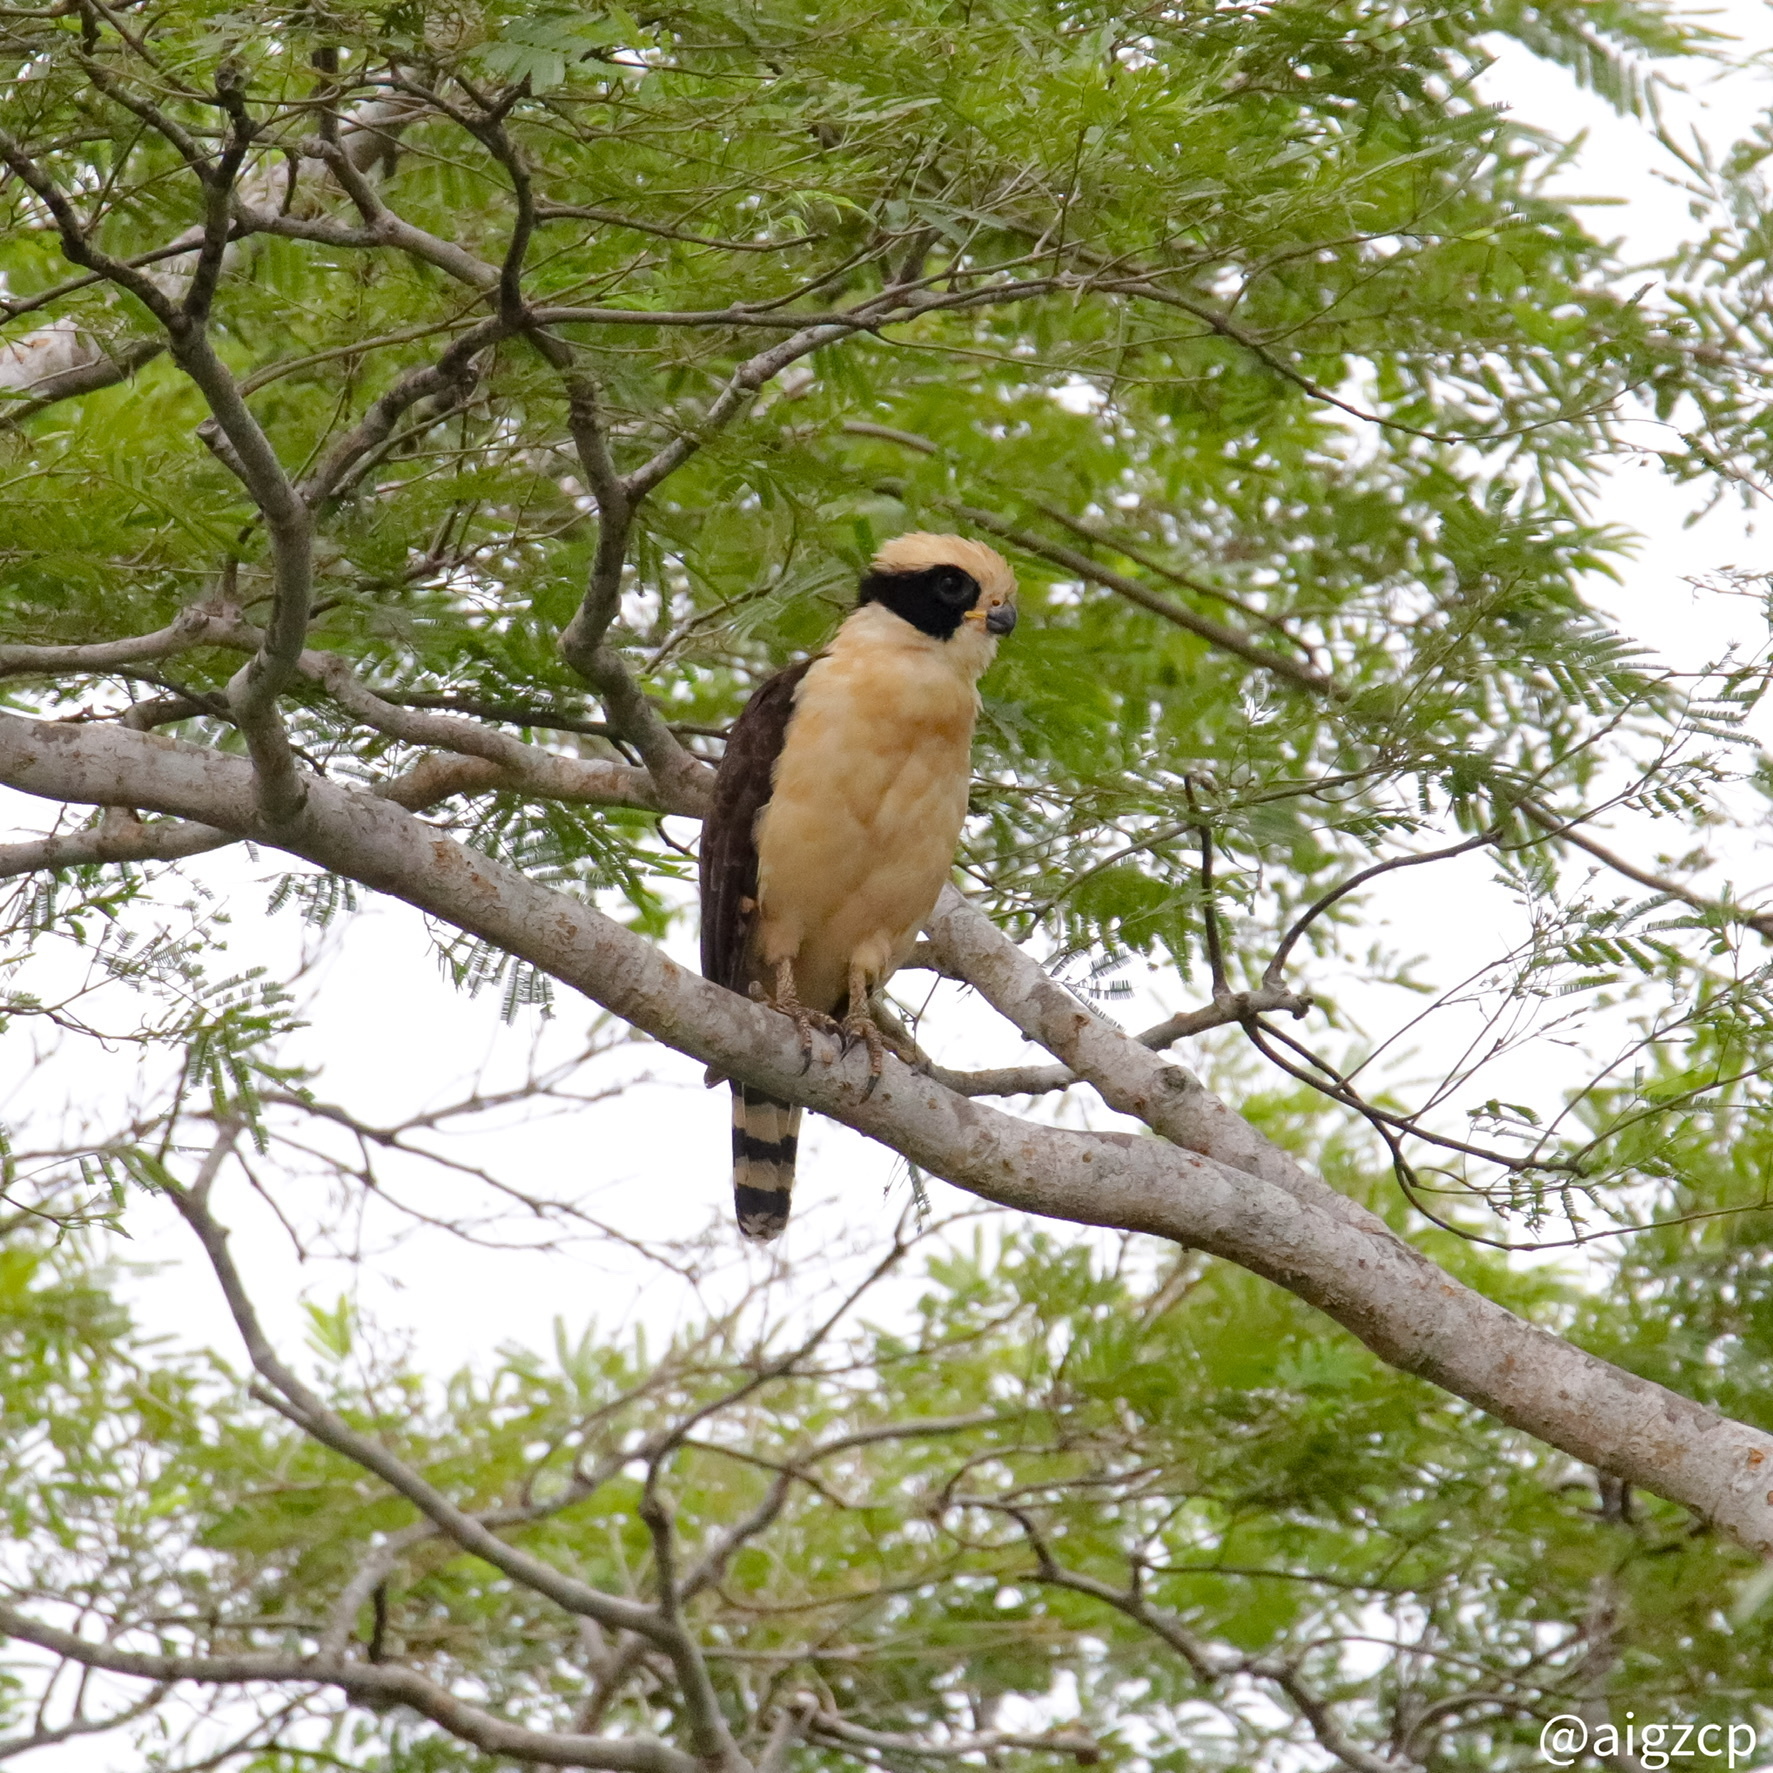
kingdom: Animalia
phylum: Chordata
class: Aves
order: Falconiformes
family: Falconidae
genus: Herpetotheres
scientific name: Herpetotheres cachinnans
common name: Laughing falcon
